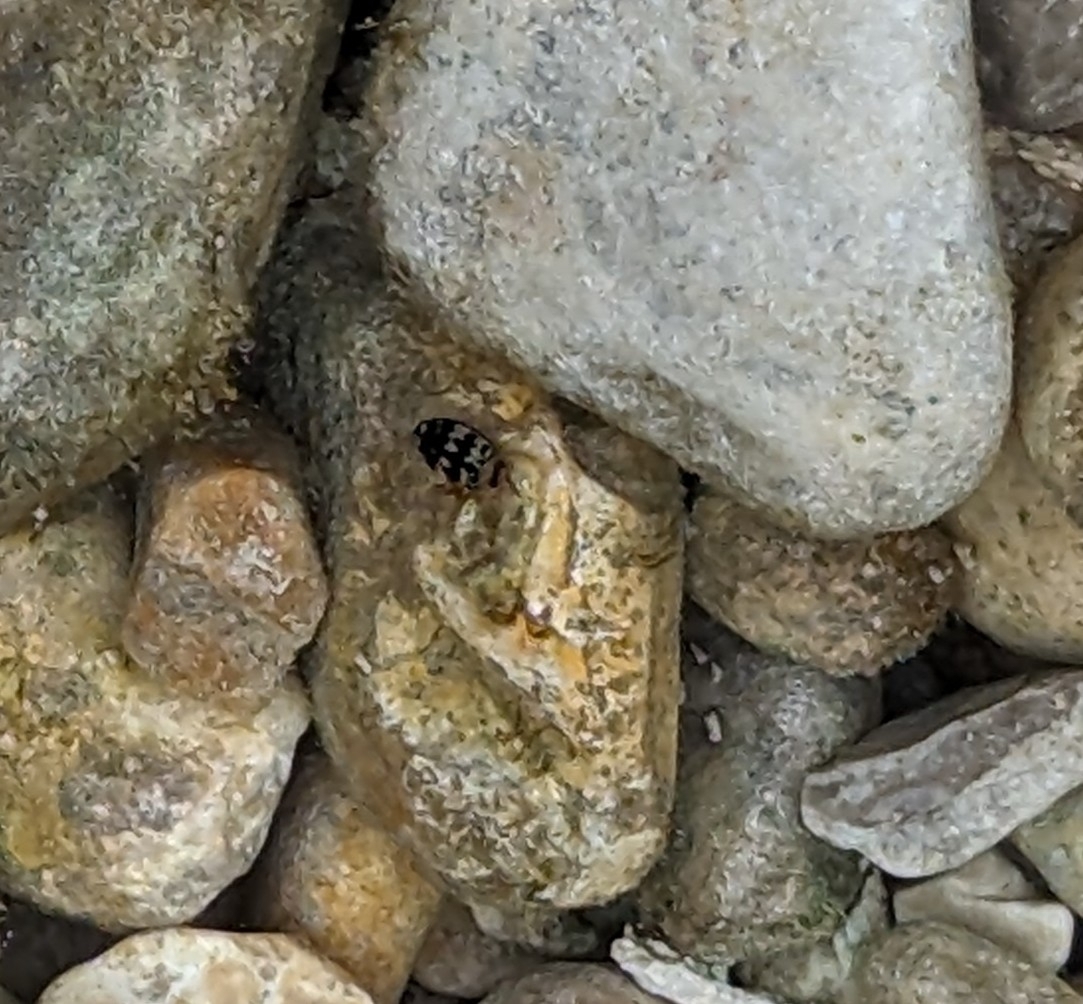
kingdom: Animalia
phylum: Arthropoda
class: Insecta
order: Coleoptera
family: Dytiscidae
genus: Laccophilus
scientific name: Laccophilus pictus
